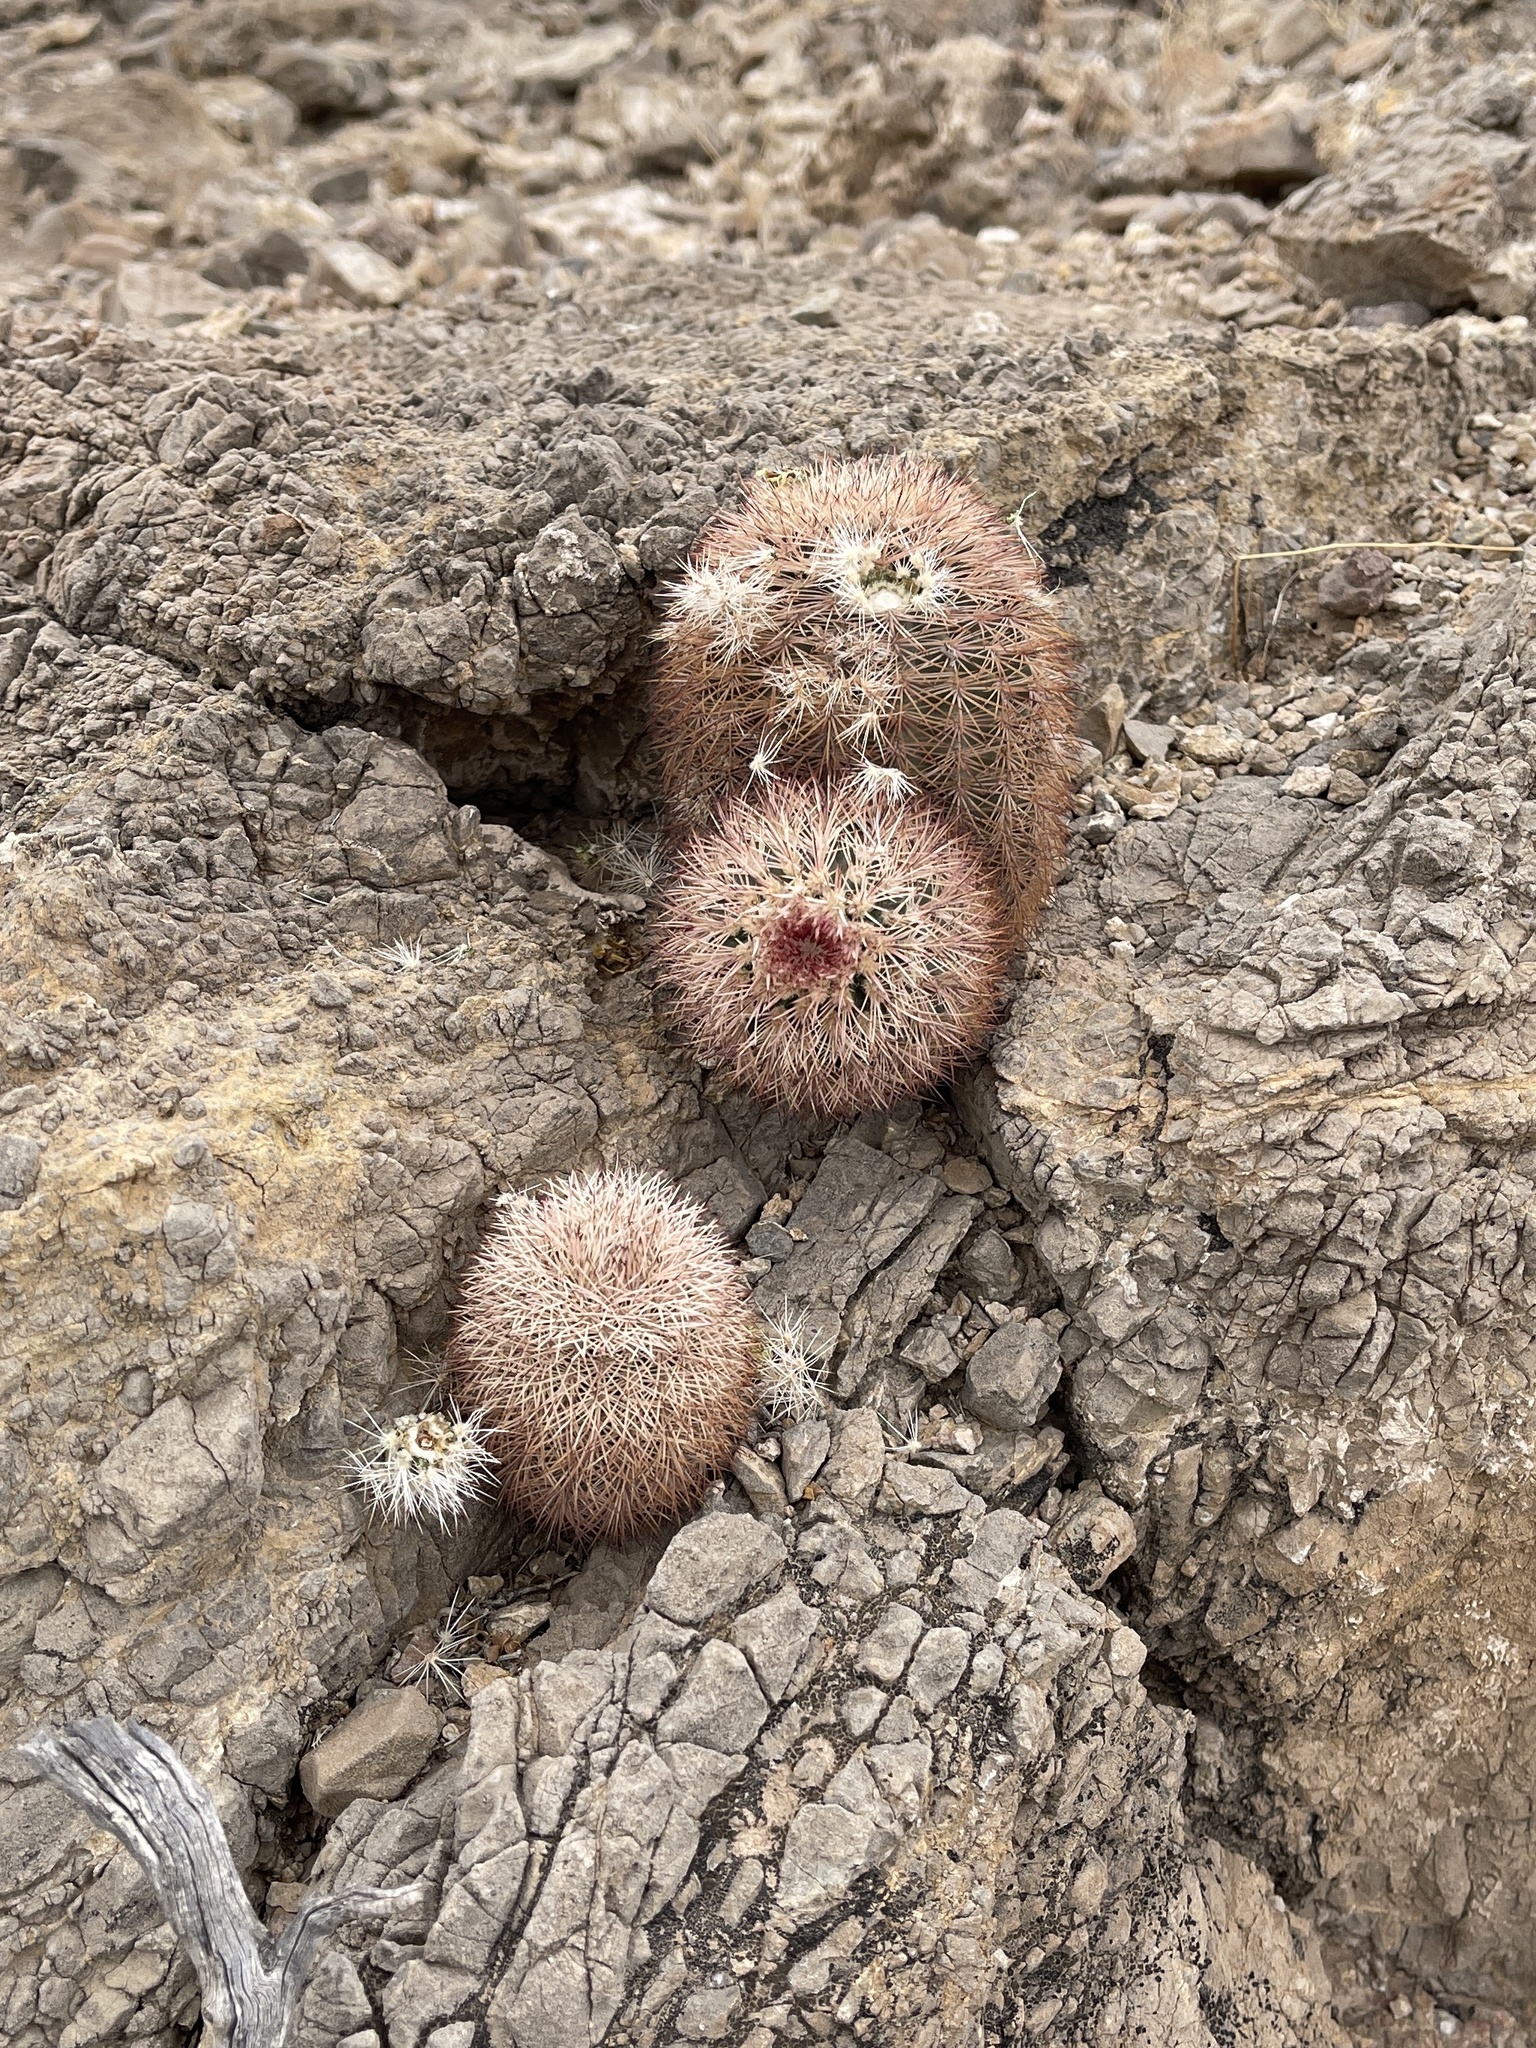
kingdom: Plantae
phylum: Tracheophyta
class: Magnoliopsida
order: Caryophyllales
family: Cactaceae
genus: Echinocereus
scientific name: Echinocereus dasyacanthus
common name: Spiny hedgehog cactus
